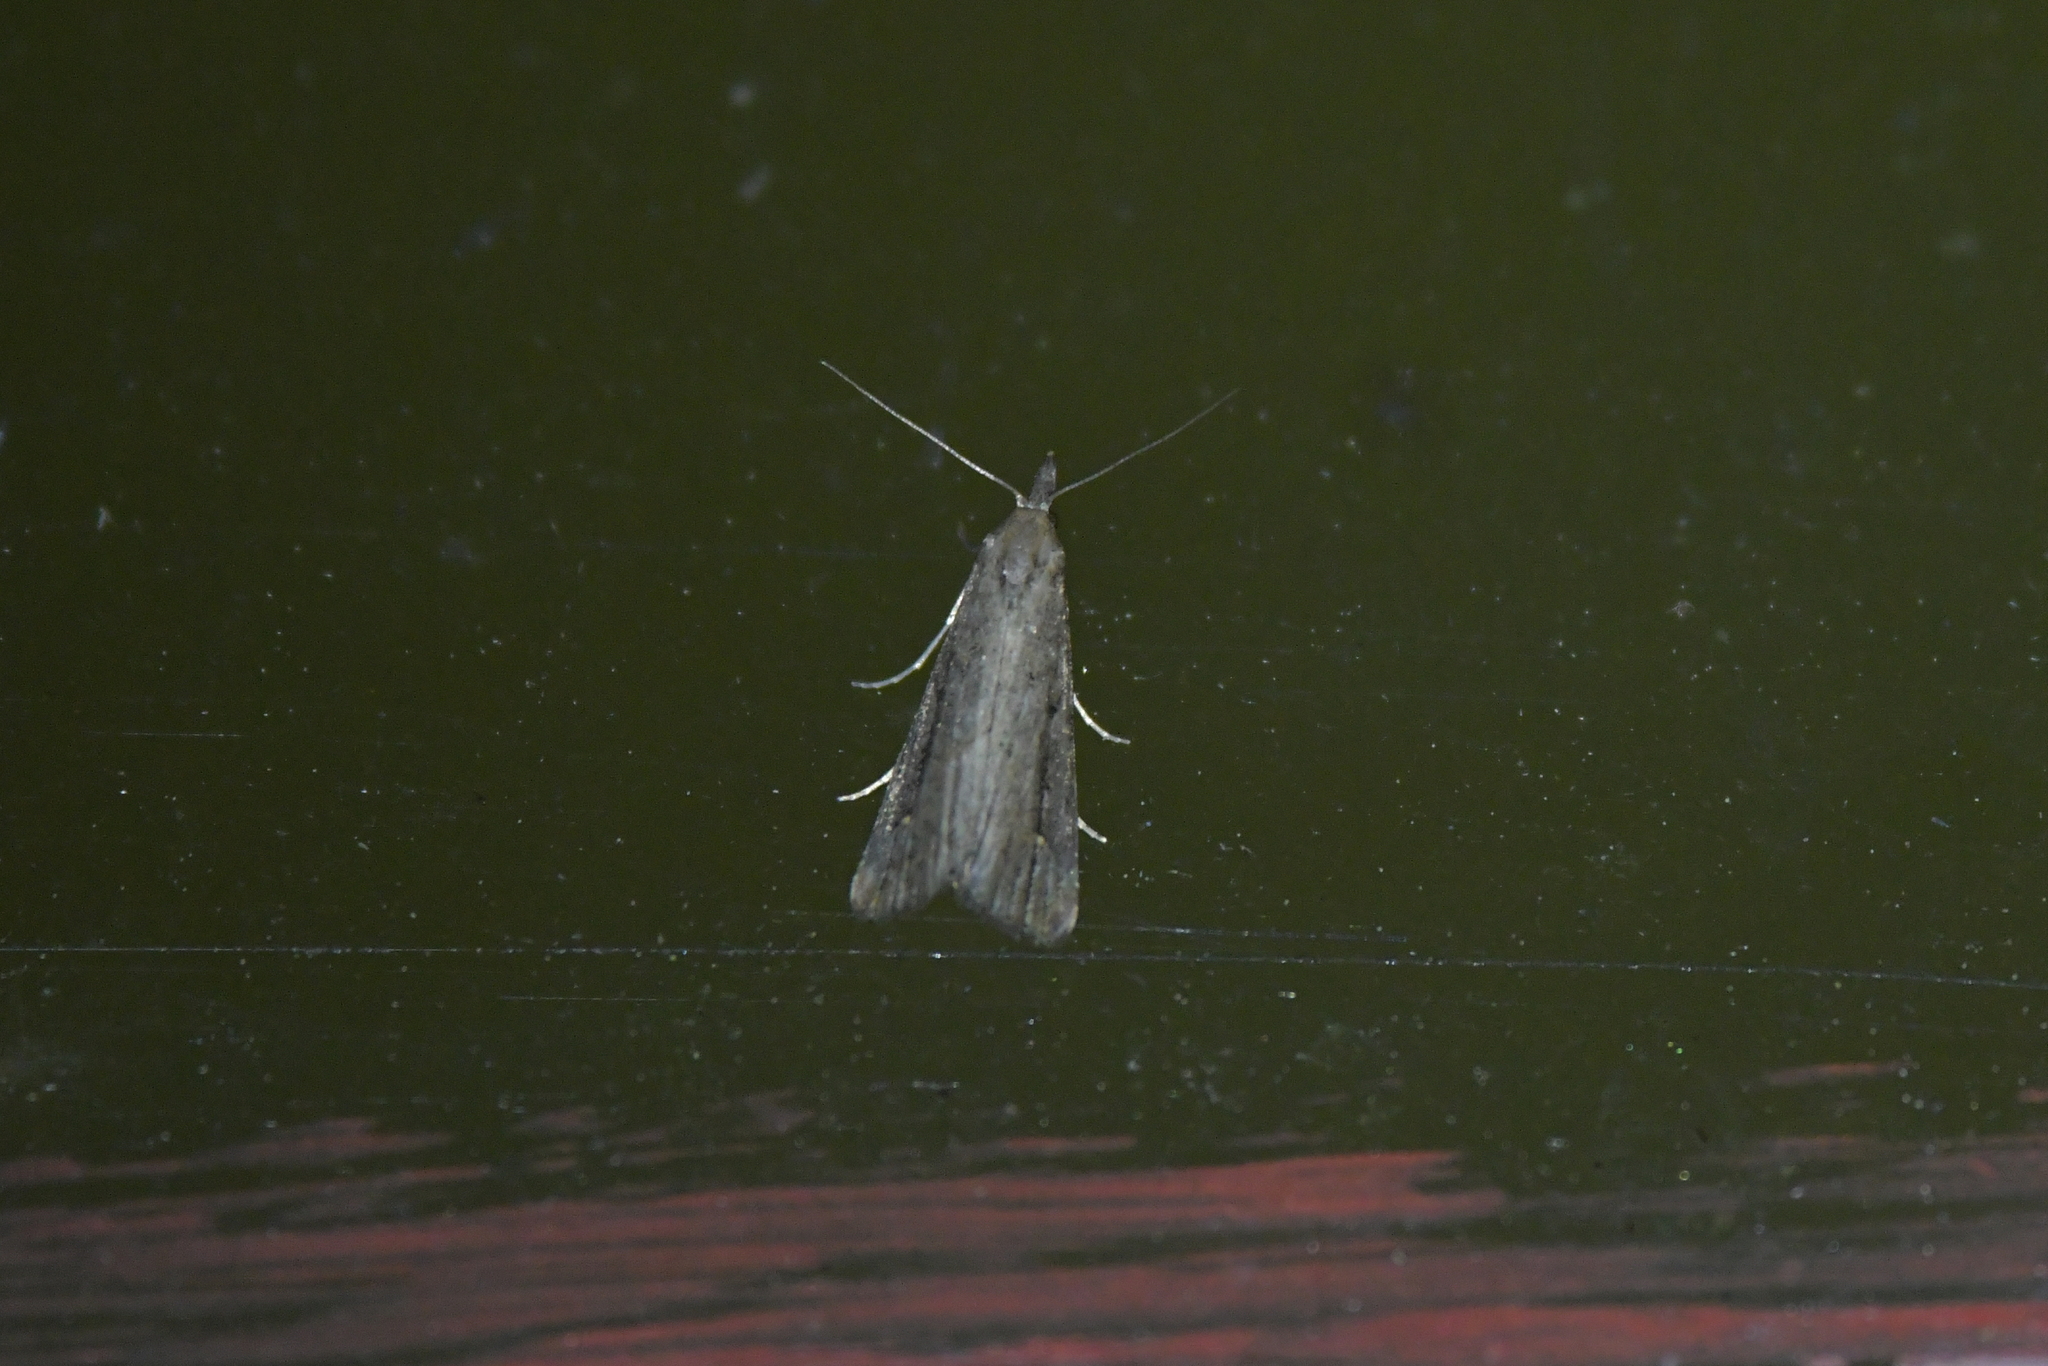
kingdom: Animalia
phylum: Arthropoda
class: Insecta
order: Lepidoptera
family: Erebidae
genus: Schrankia
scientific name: Schrankia costaestrigalis
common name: Pinion-streaked snout
